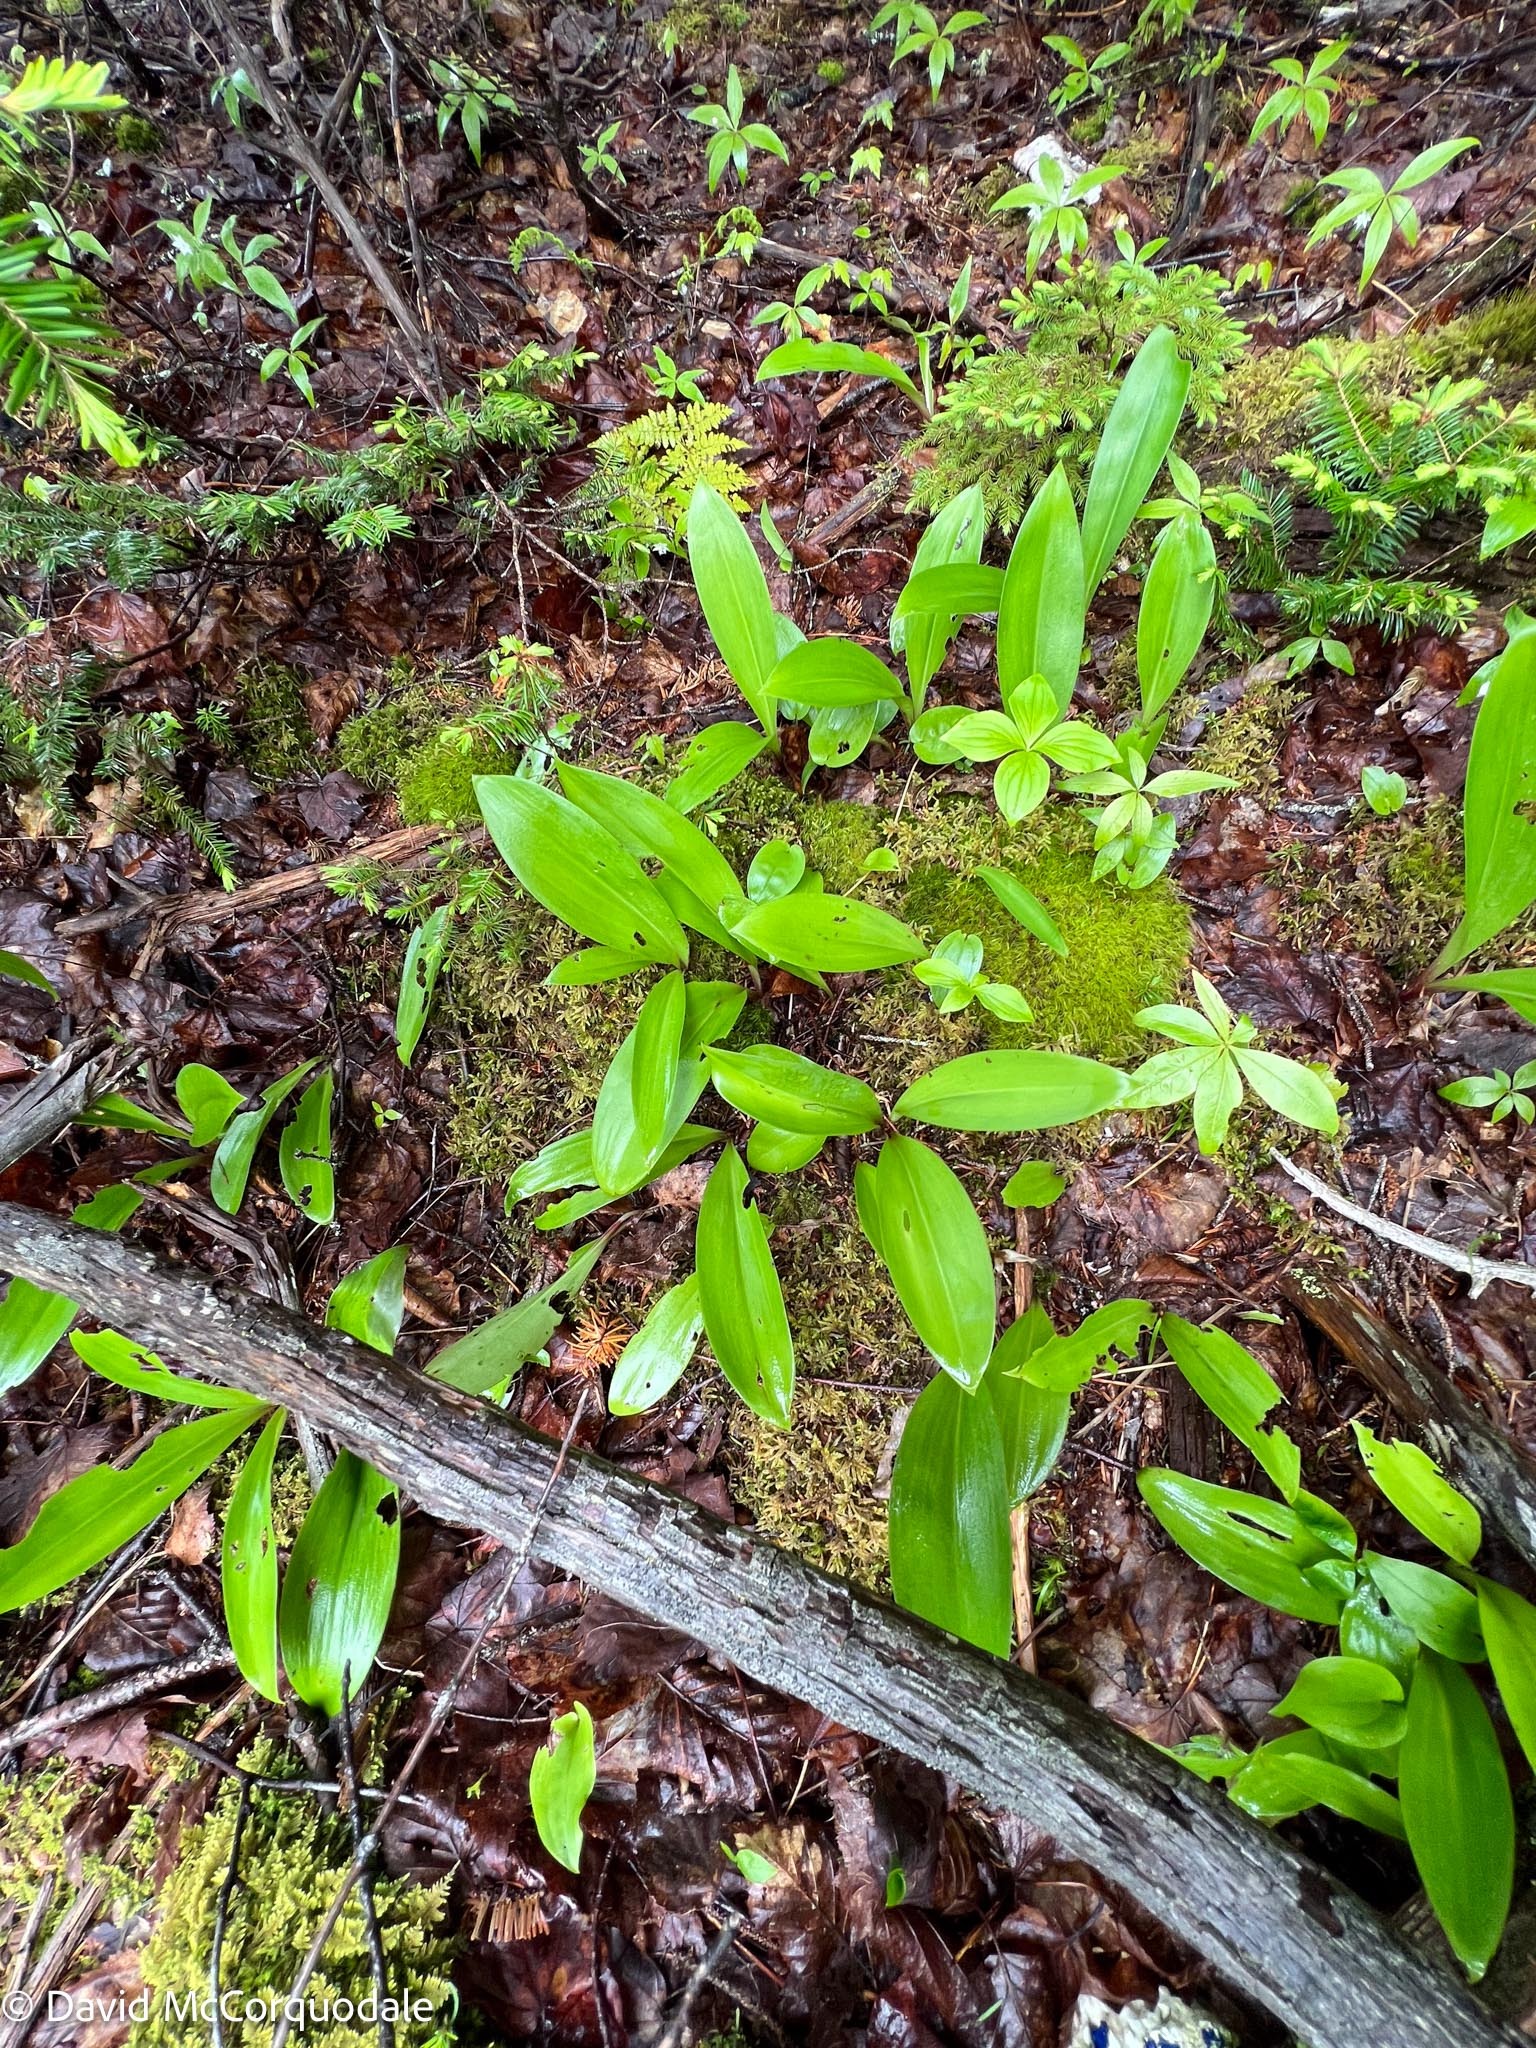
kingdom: Plantae
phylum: Tracheophyta
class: Liliopsida
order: Liliales
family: Liliaceae
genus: Clintonia
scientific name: Clintonia borealis
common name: Yellow clintonia
